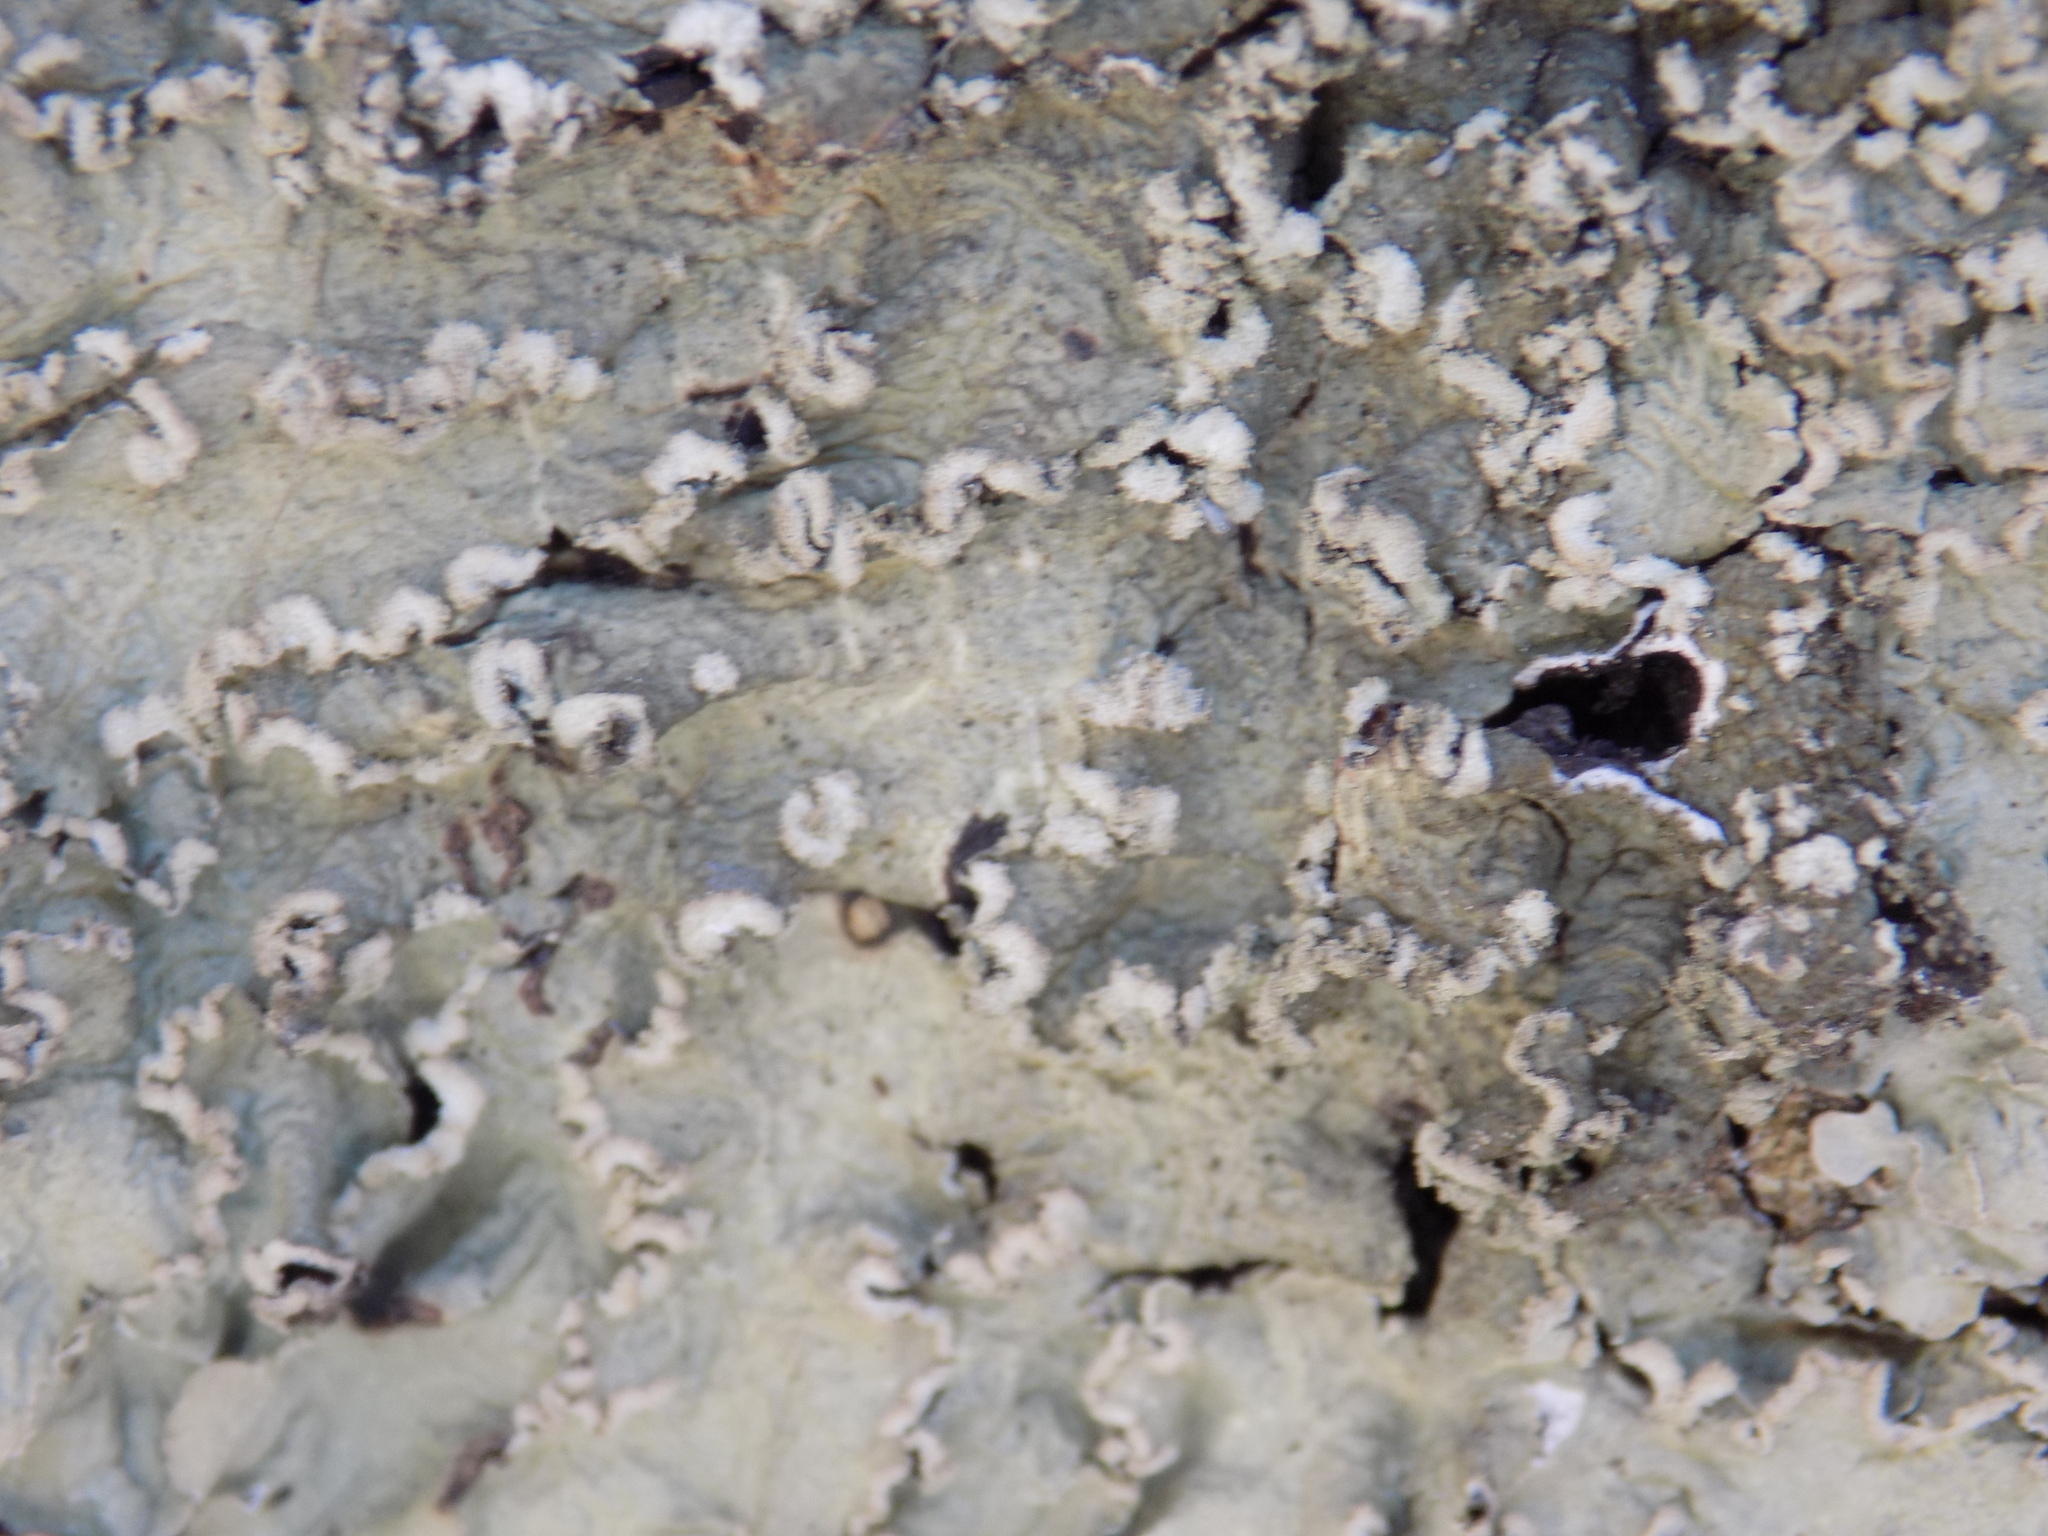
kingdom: Fungi
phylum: Ascomycota
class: Lecanoromycetes
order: Lecanorales
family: Parmeliaceae
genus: Flavopunctelia
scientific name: Flavopunctelia soredica
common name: Powder-edged speckled greenshield
